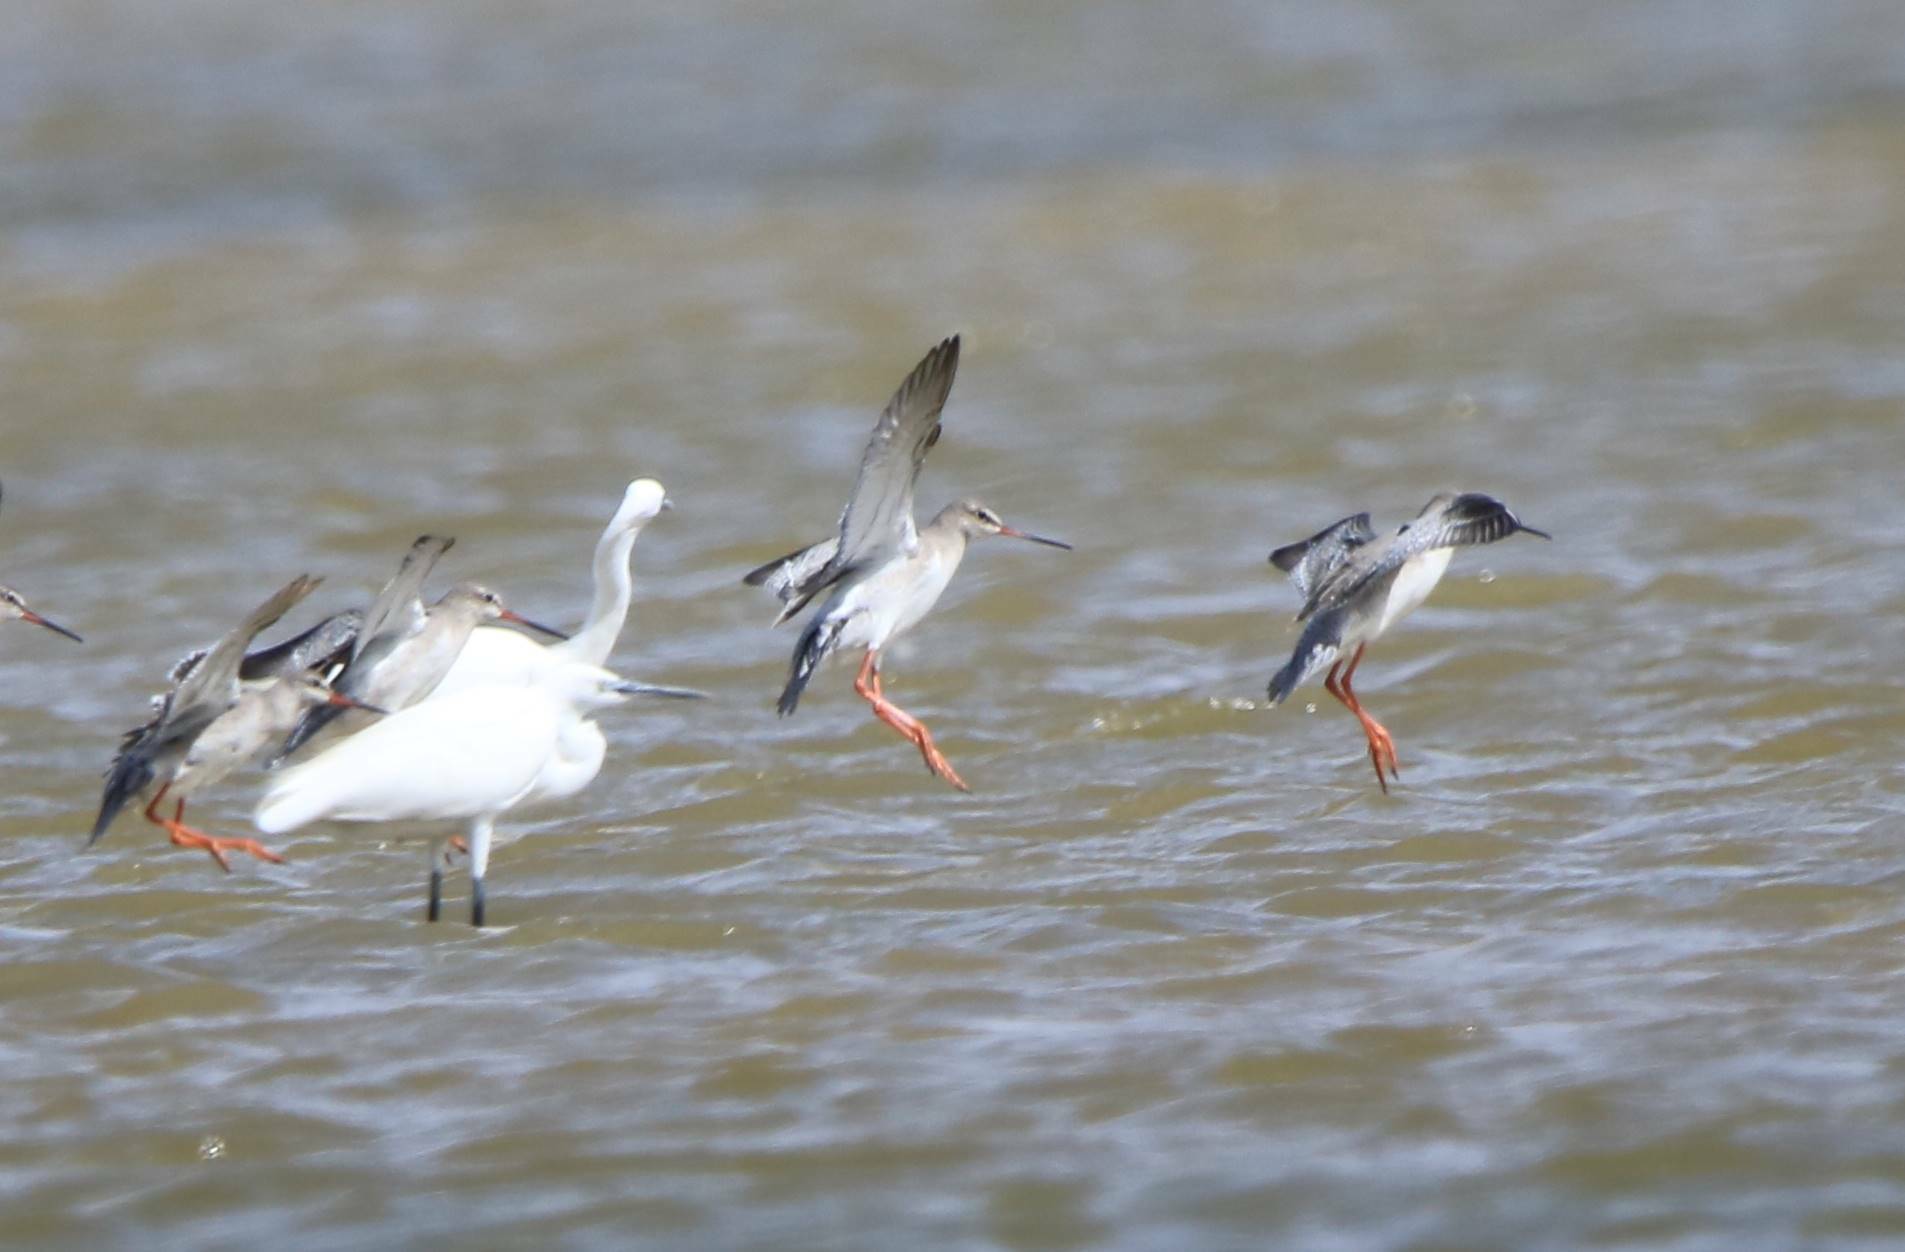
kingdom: Animalia
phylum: Chordata
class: Aves
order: Charadriiformes
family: Scolopacidae
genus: Tringa
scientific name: Tringa erythropus
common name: Spotted redshank
